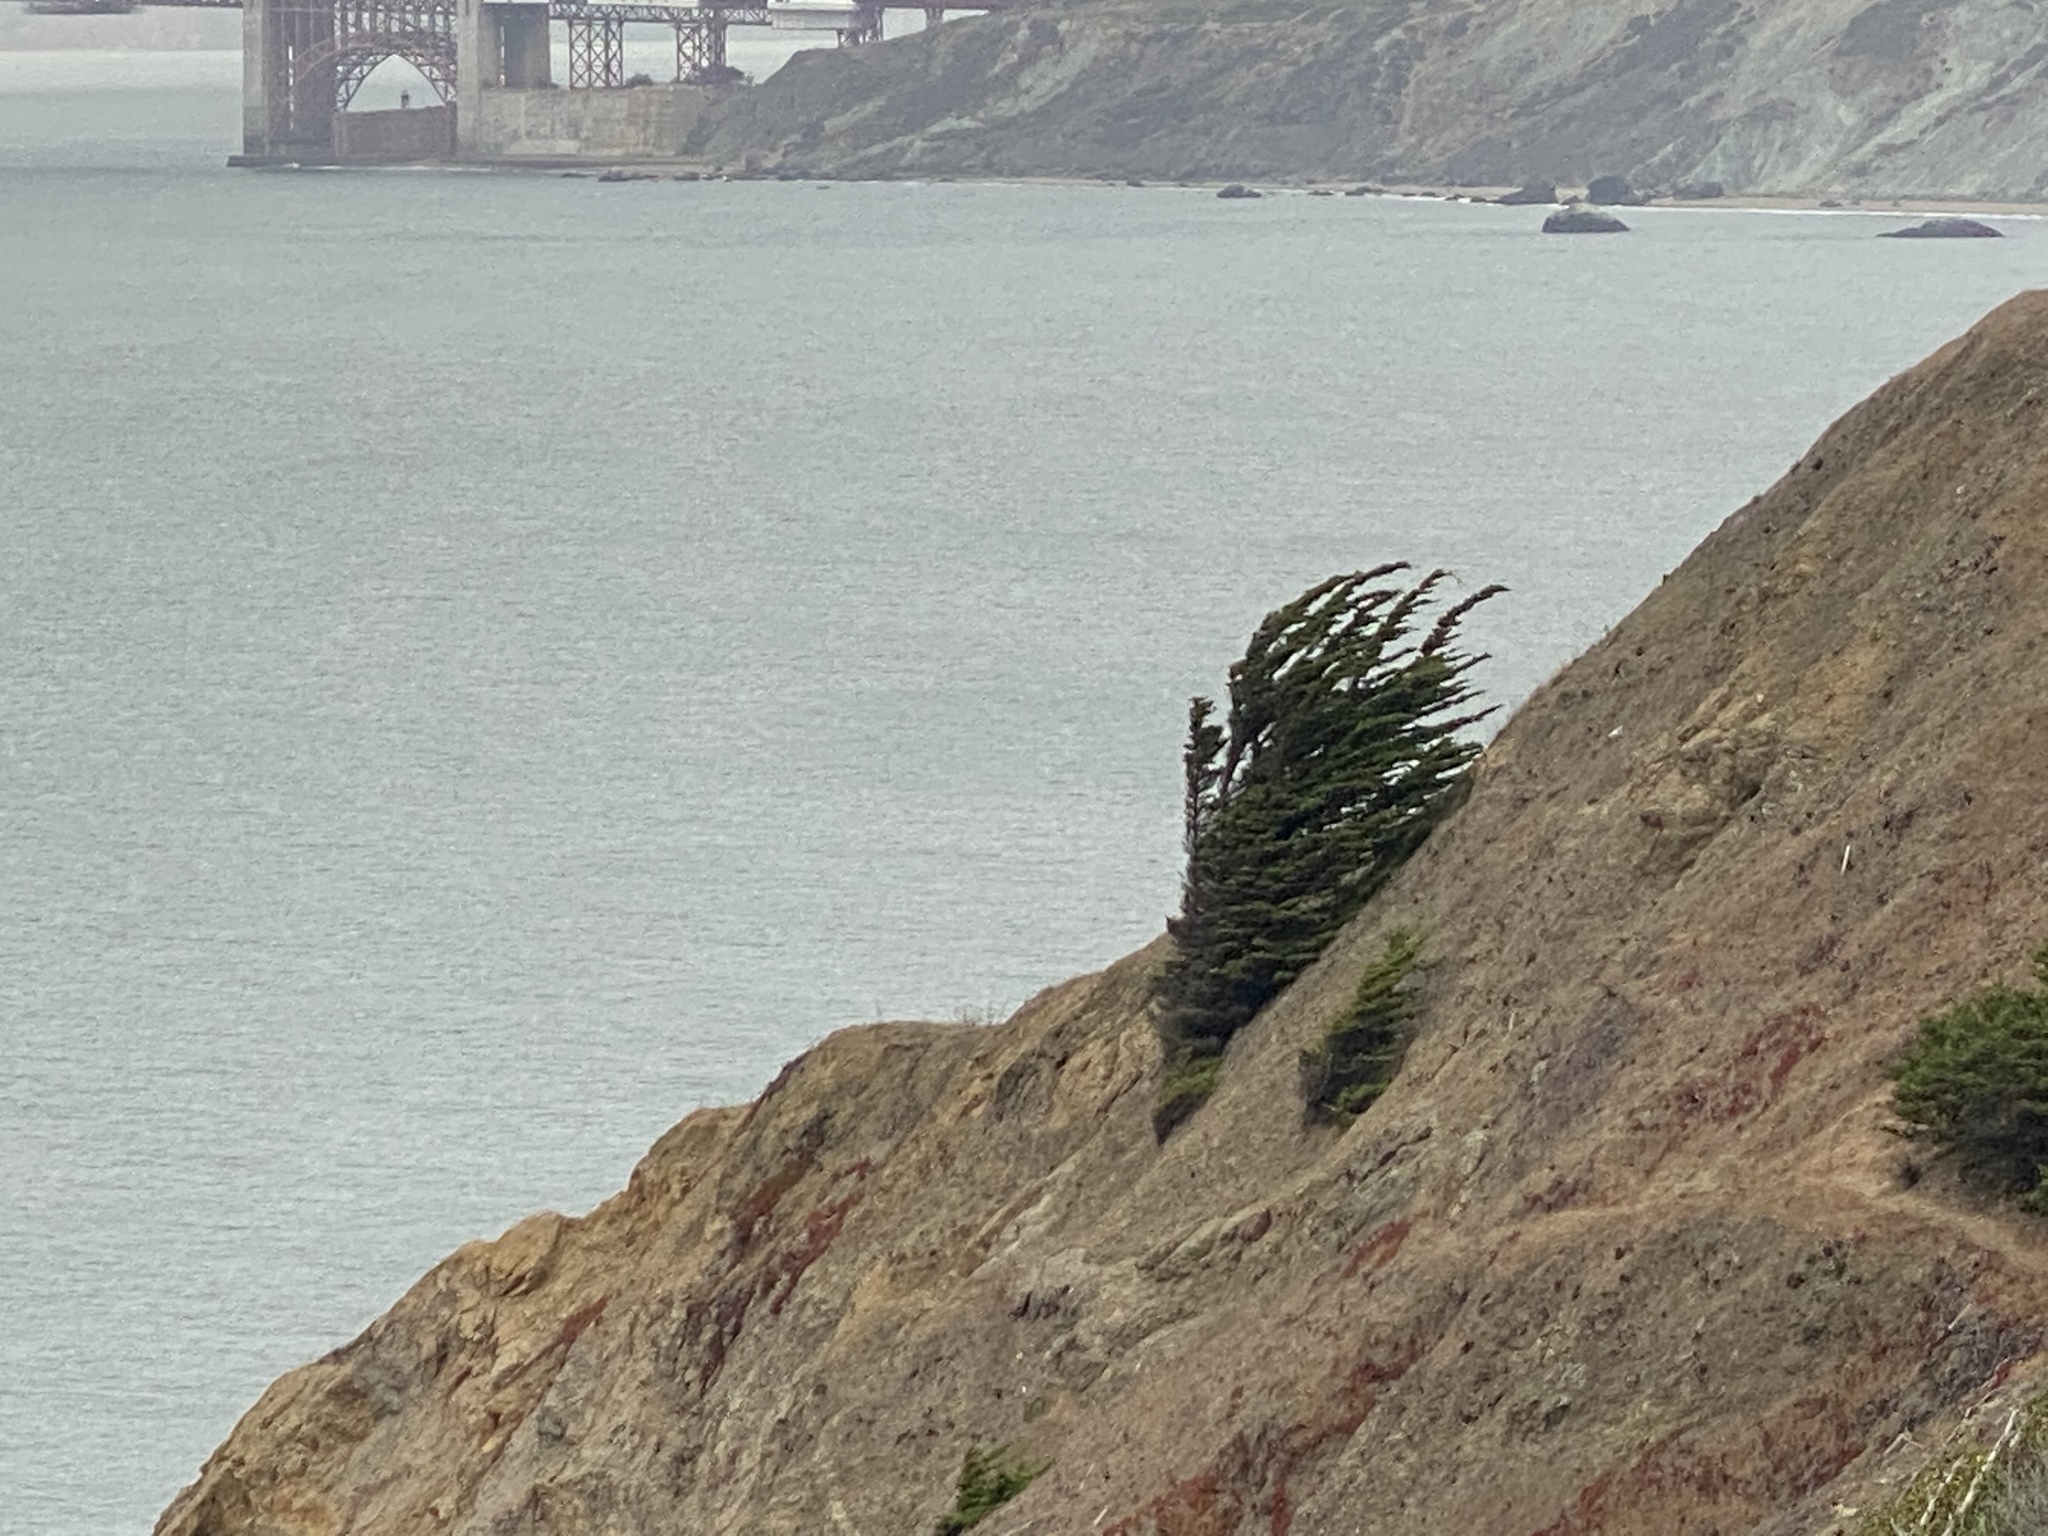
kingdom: Plantae
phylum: Tracheophyta
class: Pinopsida
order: Pinales
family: Cupressaceae
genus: Cupressus
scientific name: Cupressus macrocarpa
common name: Monterey cypress
